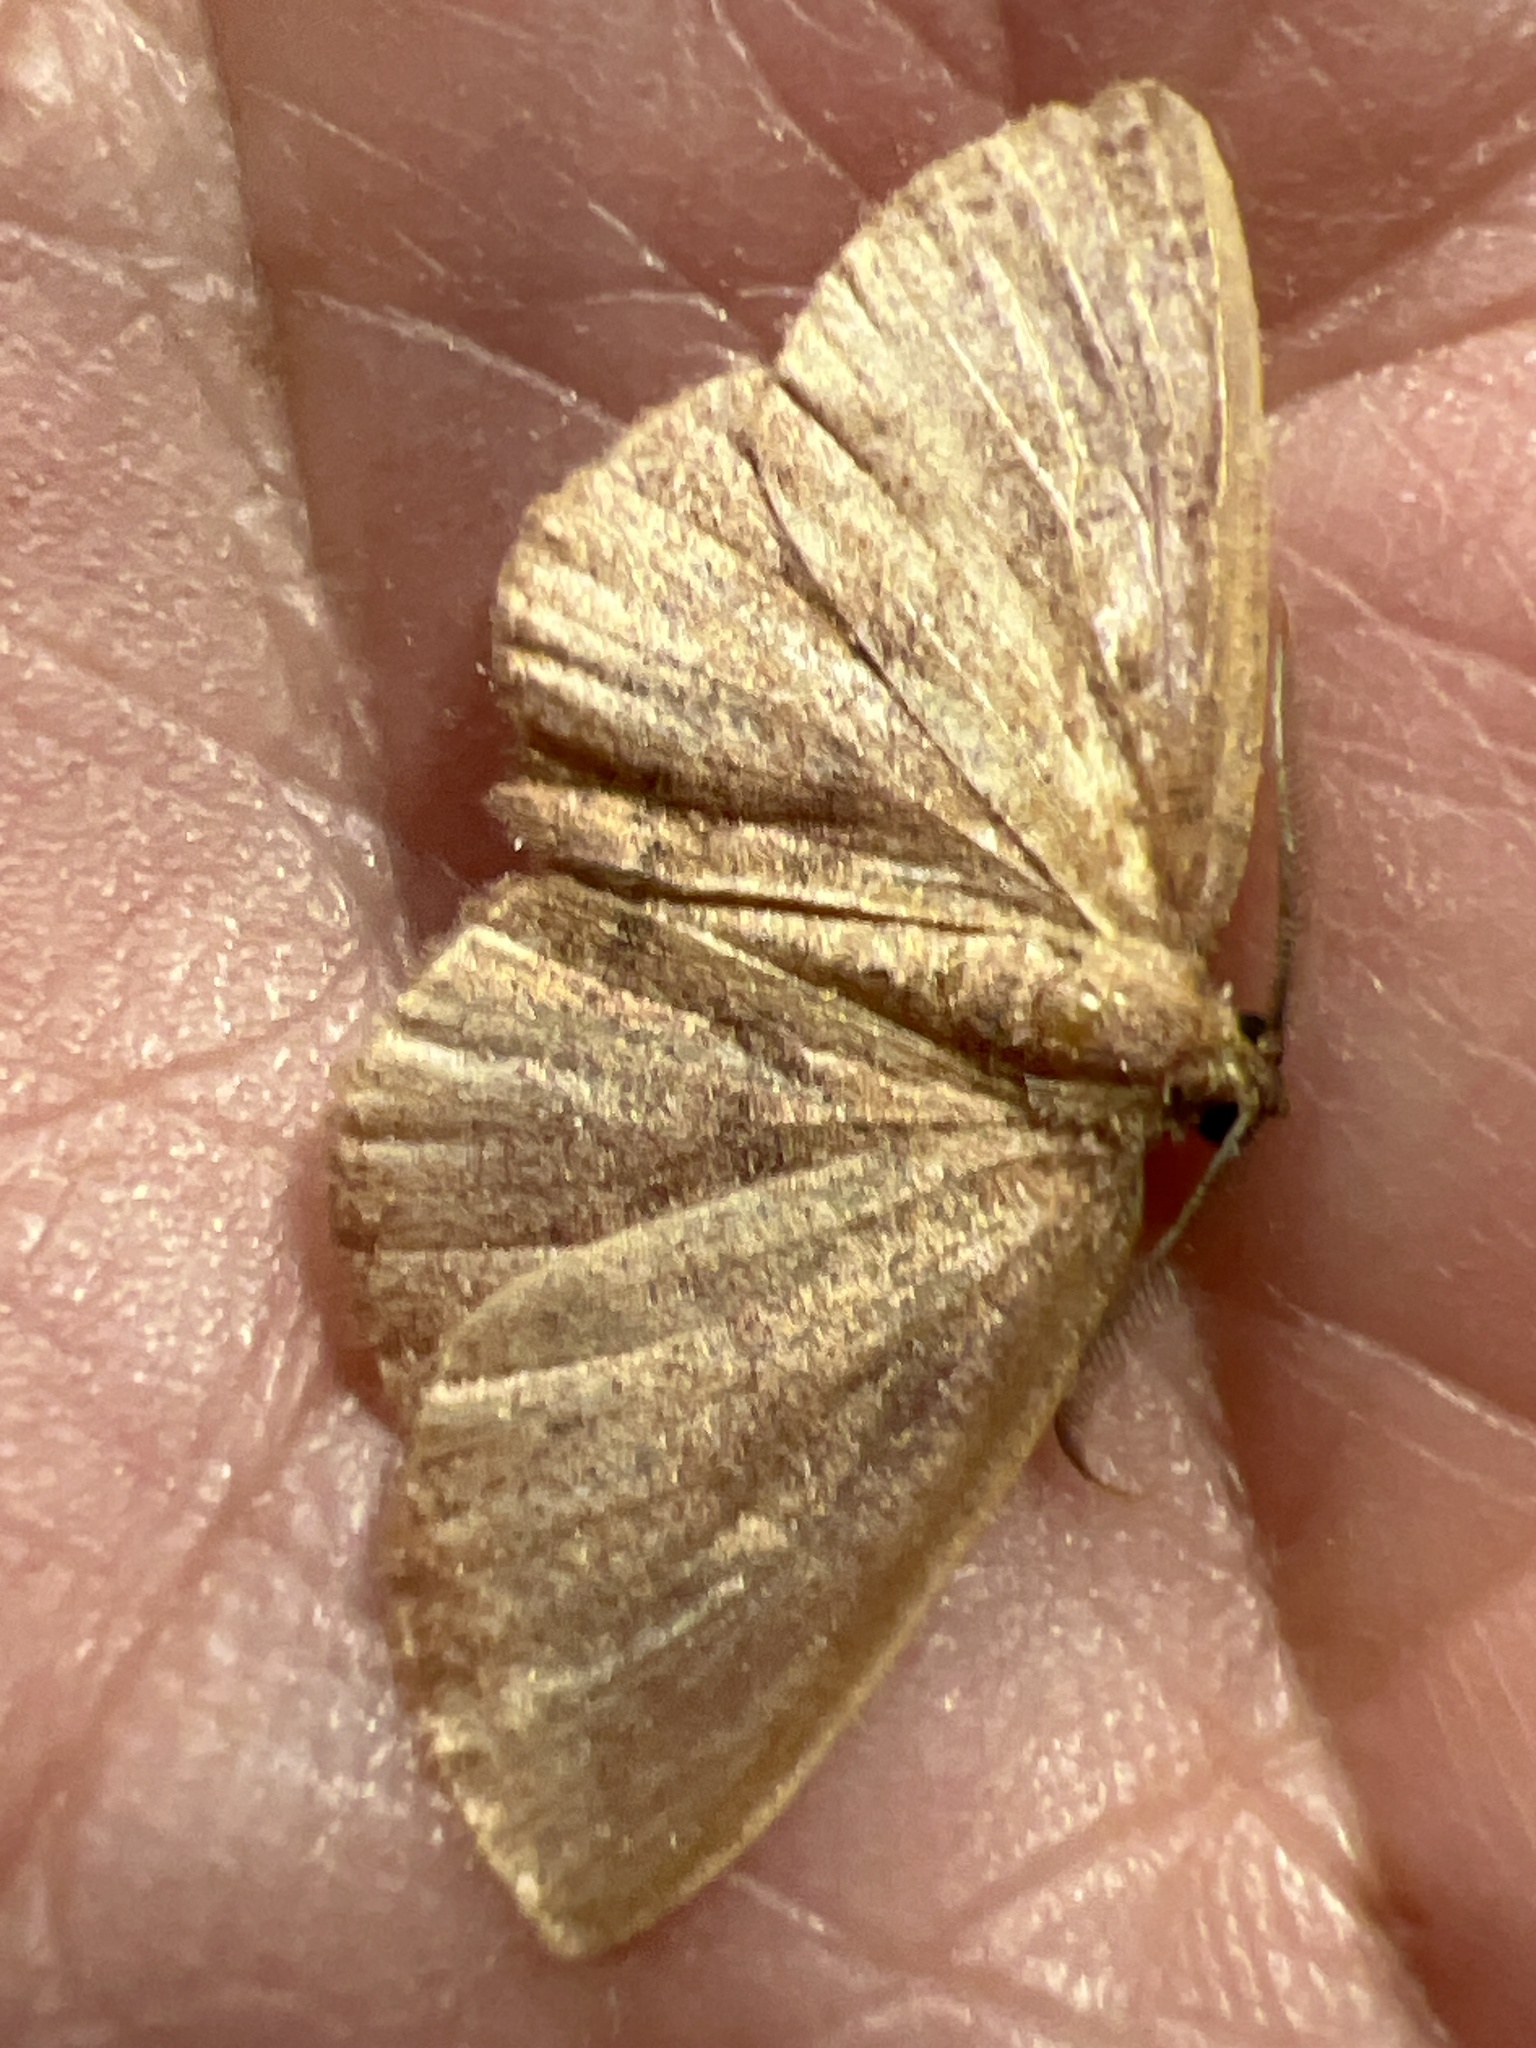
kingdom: Animalia
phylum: Arthropoda
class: Insecta
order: Lepidoptera
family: Geometridae
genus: Ilexia
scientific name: Ilexia intractata
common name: Black-dotted ruddy moth
